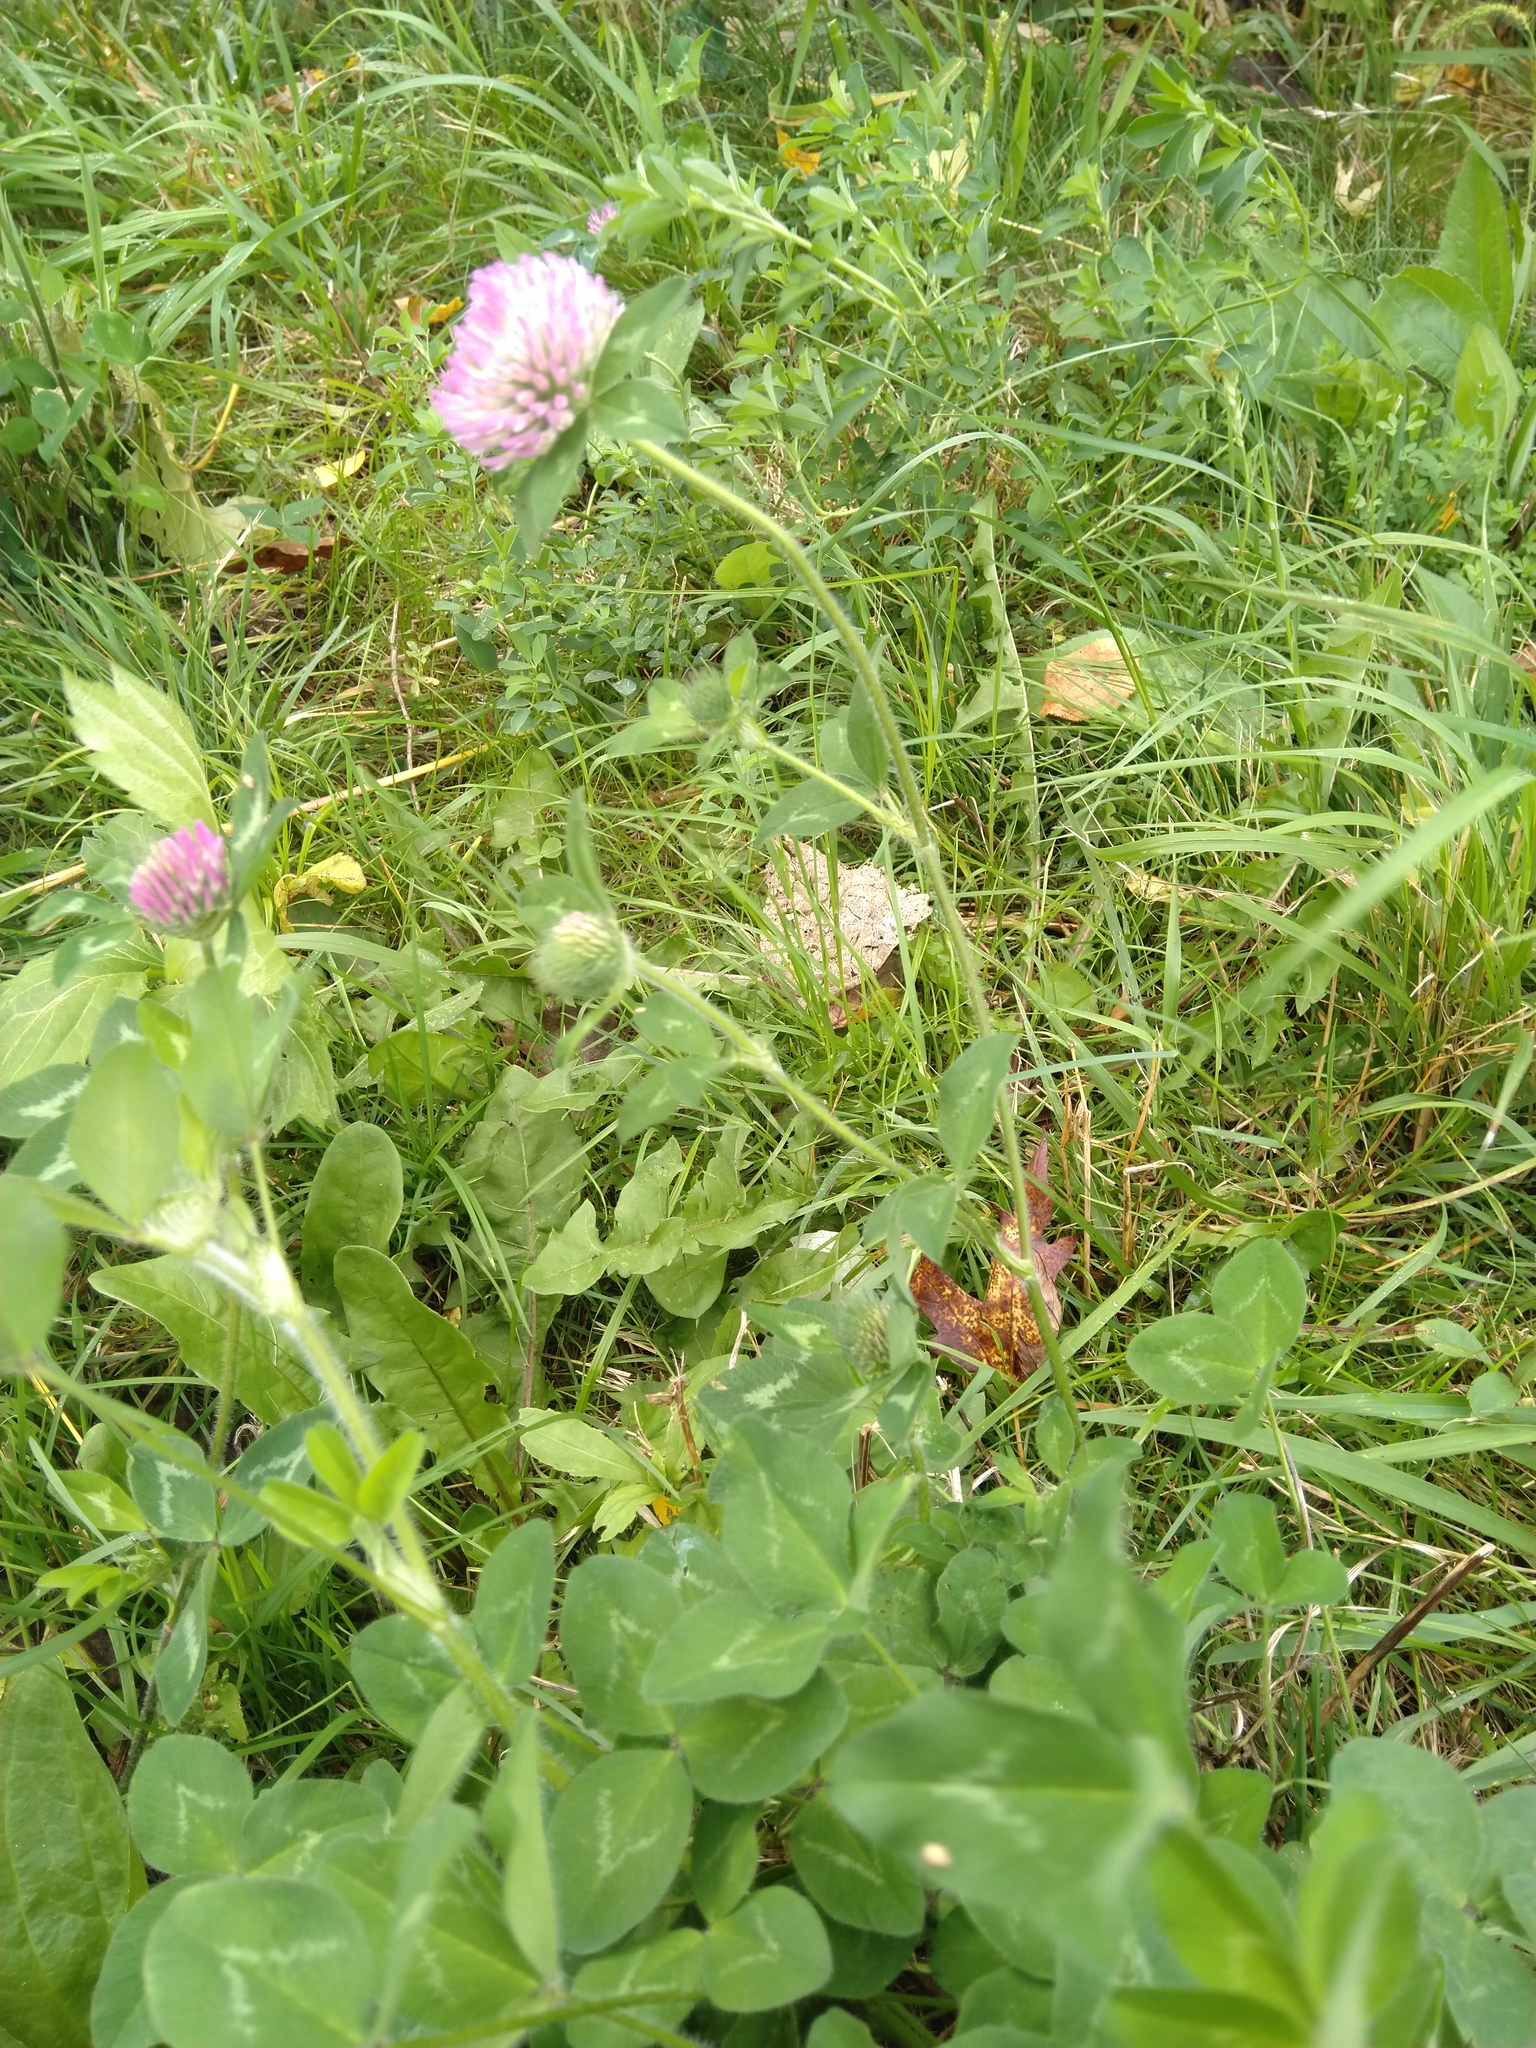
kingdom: Plantae
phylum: Tracheophyta
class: Magnoliopsida
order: Fabales
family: Fabaceae
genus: Trifolium
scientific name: Trifolium pratense
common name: Red clover
